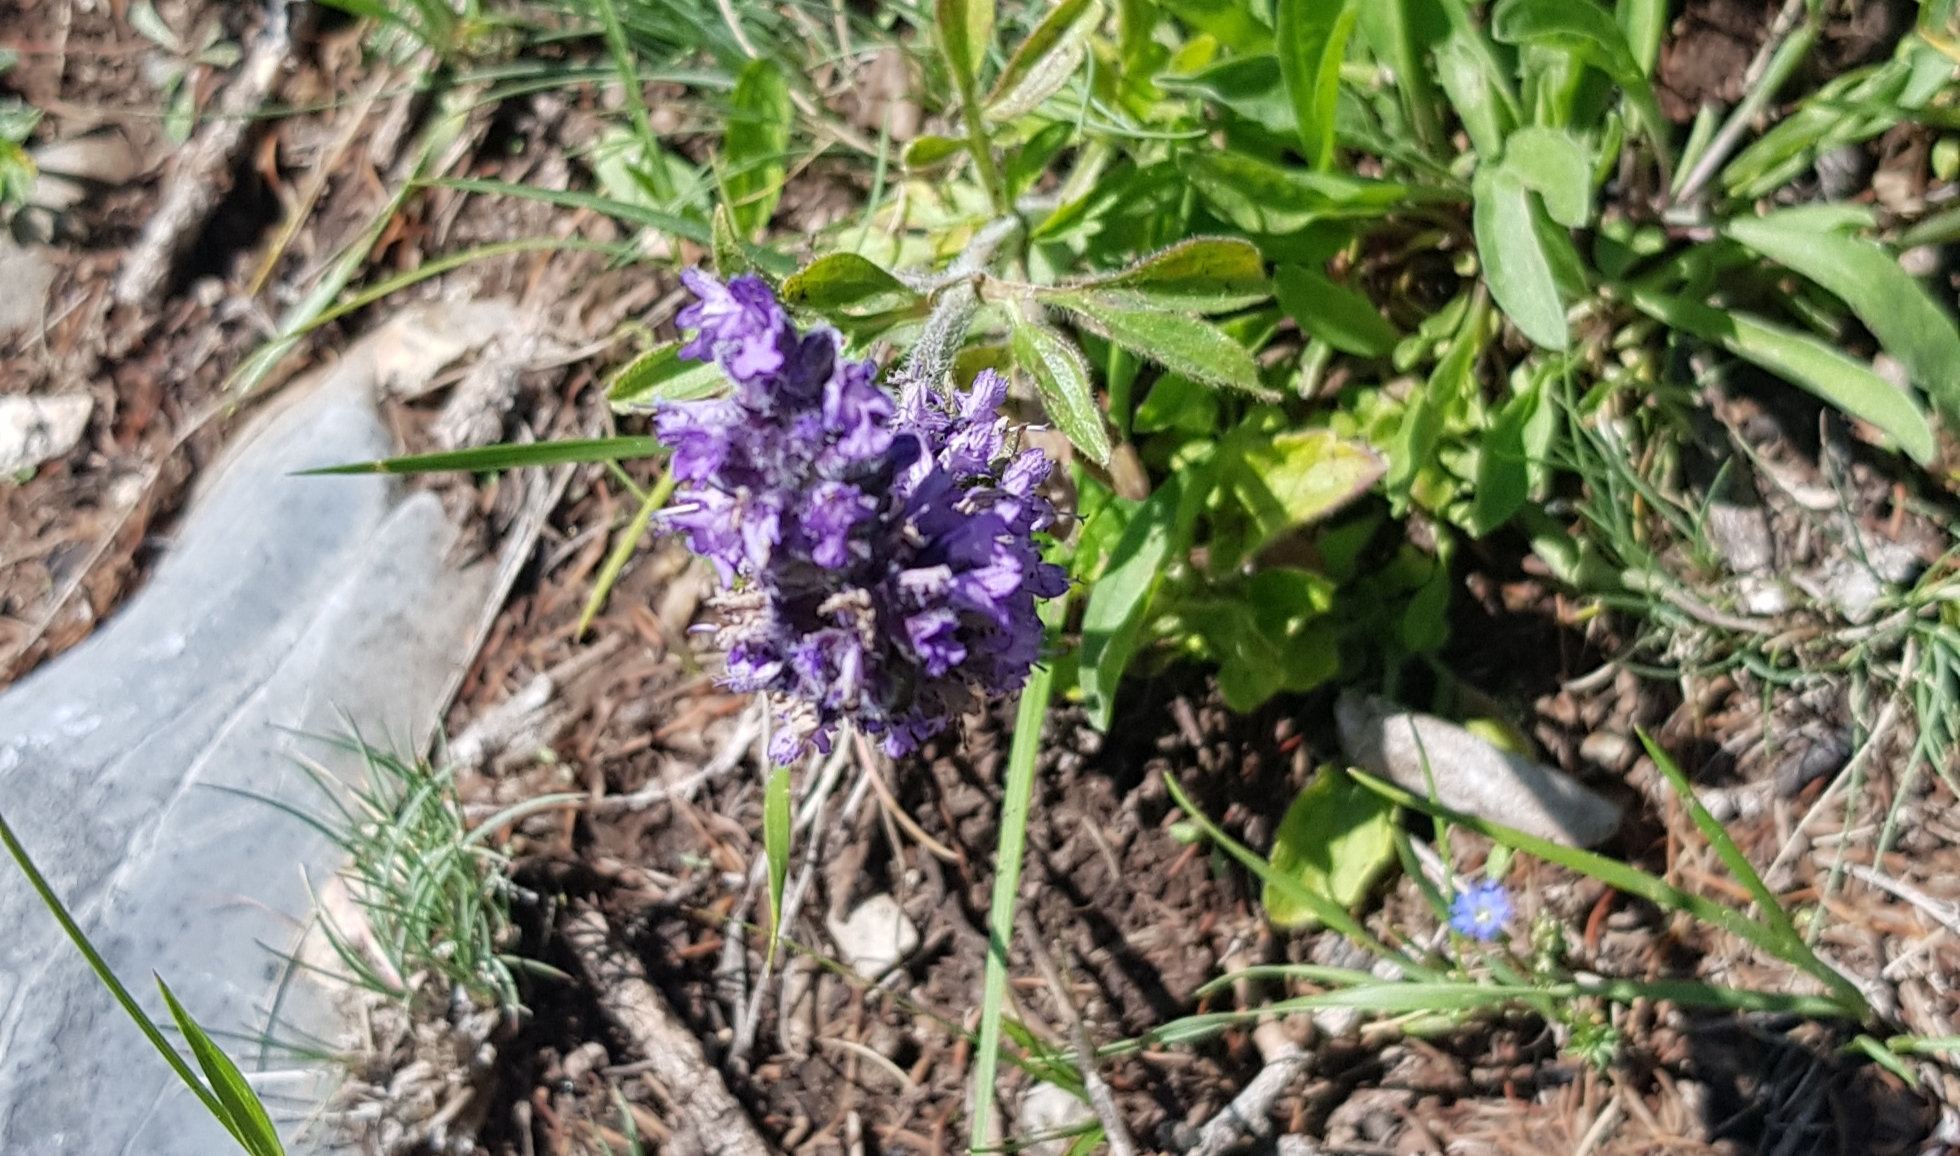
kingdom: Plantae
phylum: Tracheophyta
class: Magnoliopsida
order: Lamiales
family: Lamiaceae
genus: Nepeta
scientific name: Nepeta multifida
